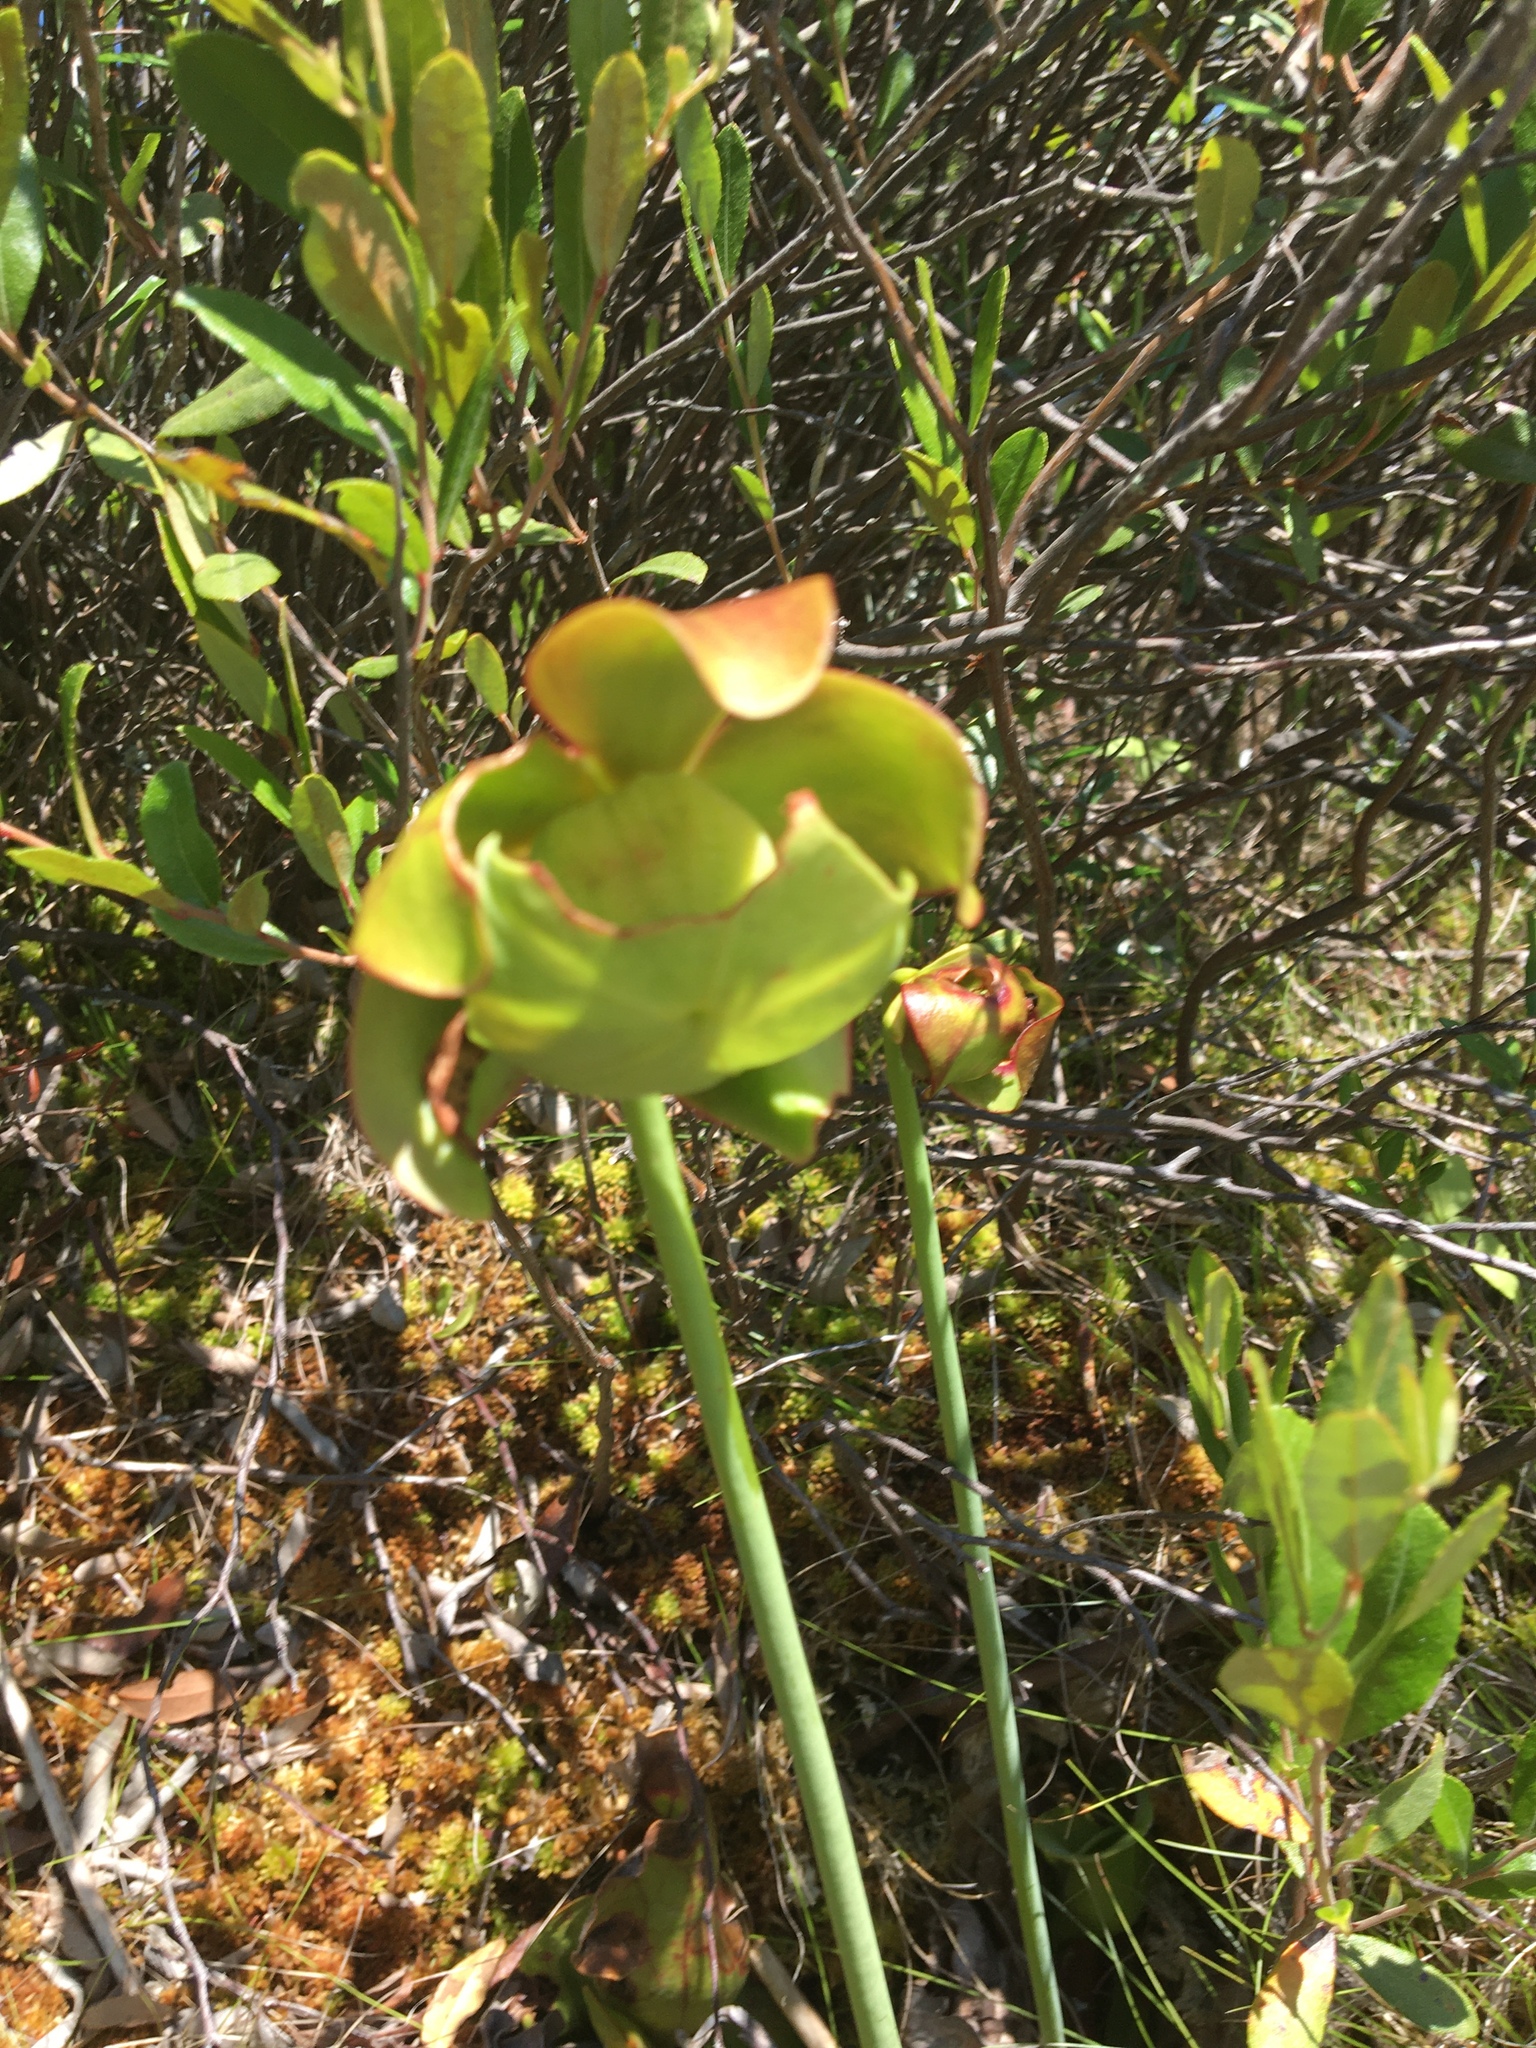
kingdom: Plantae
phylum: Tracheophyta
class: Magnoliopsida
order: Ericales
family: Sarraceniaceae
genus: Sarracenia
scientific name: Sarracenia purpurea
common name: Pitcherplant
